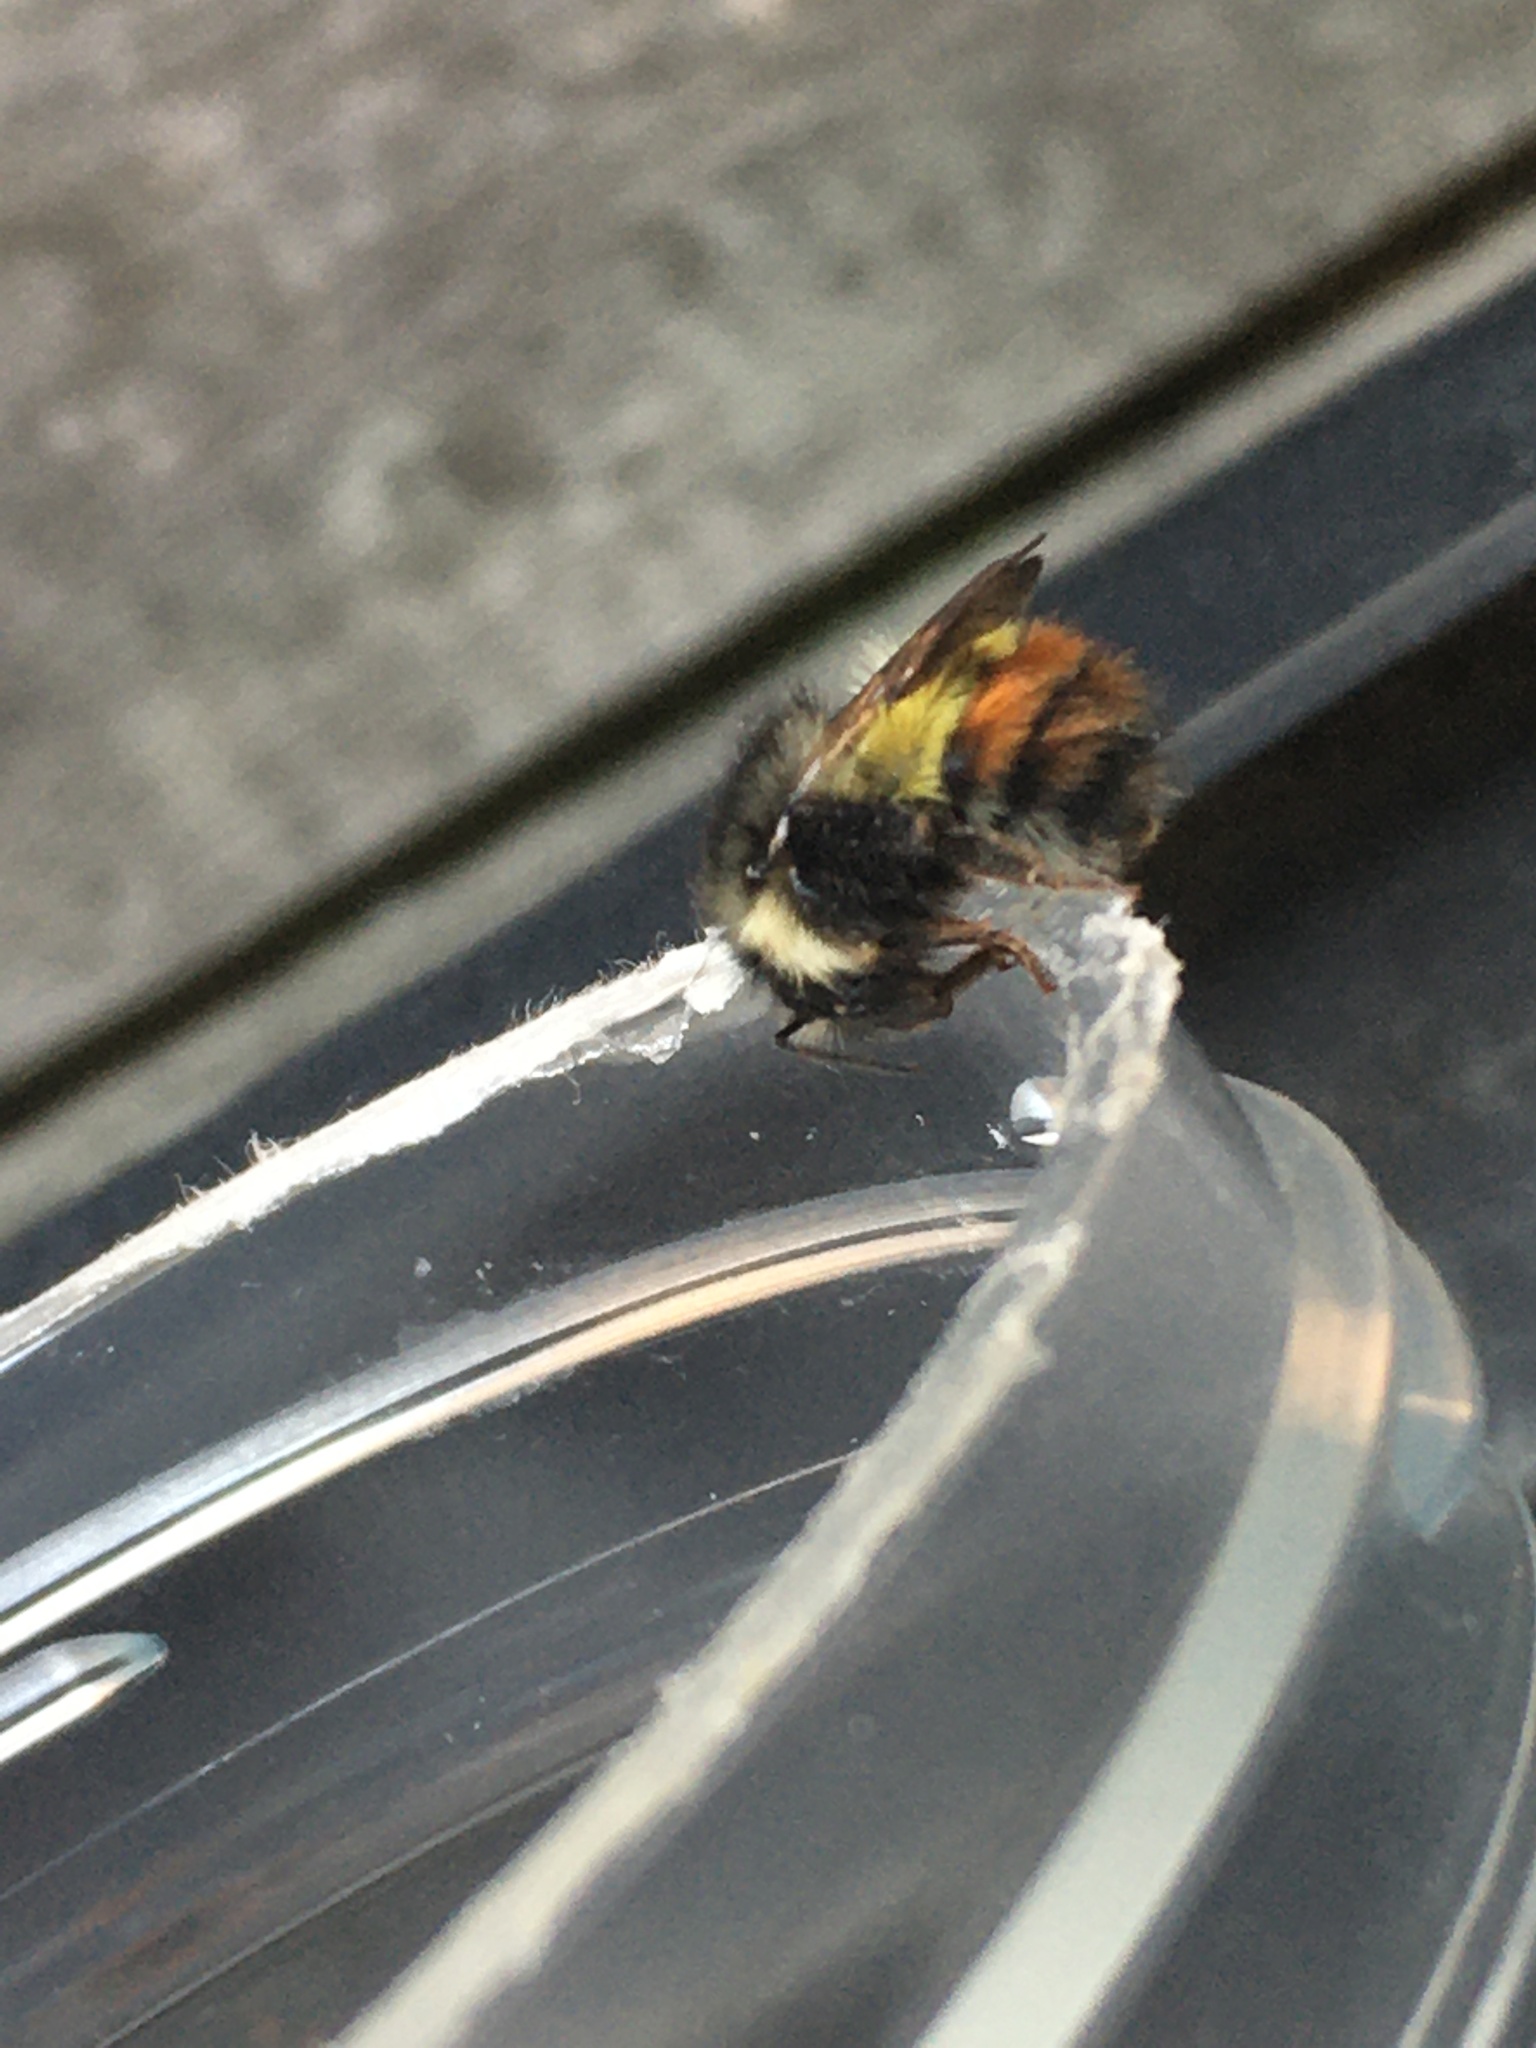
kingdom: Animalia
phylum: Arthropoda
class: Insecta
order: Hymenoptera
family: Apidae
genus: Bombus
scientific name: Bombus flavifrons
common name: Yellow head bumble bee
